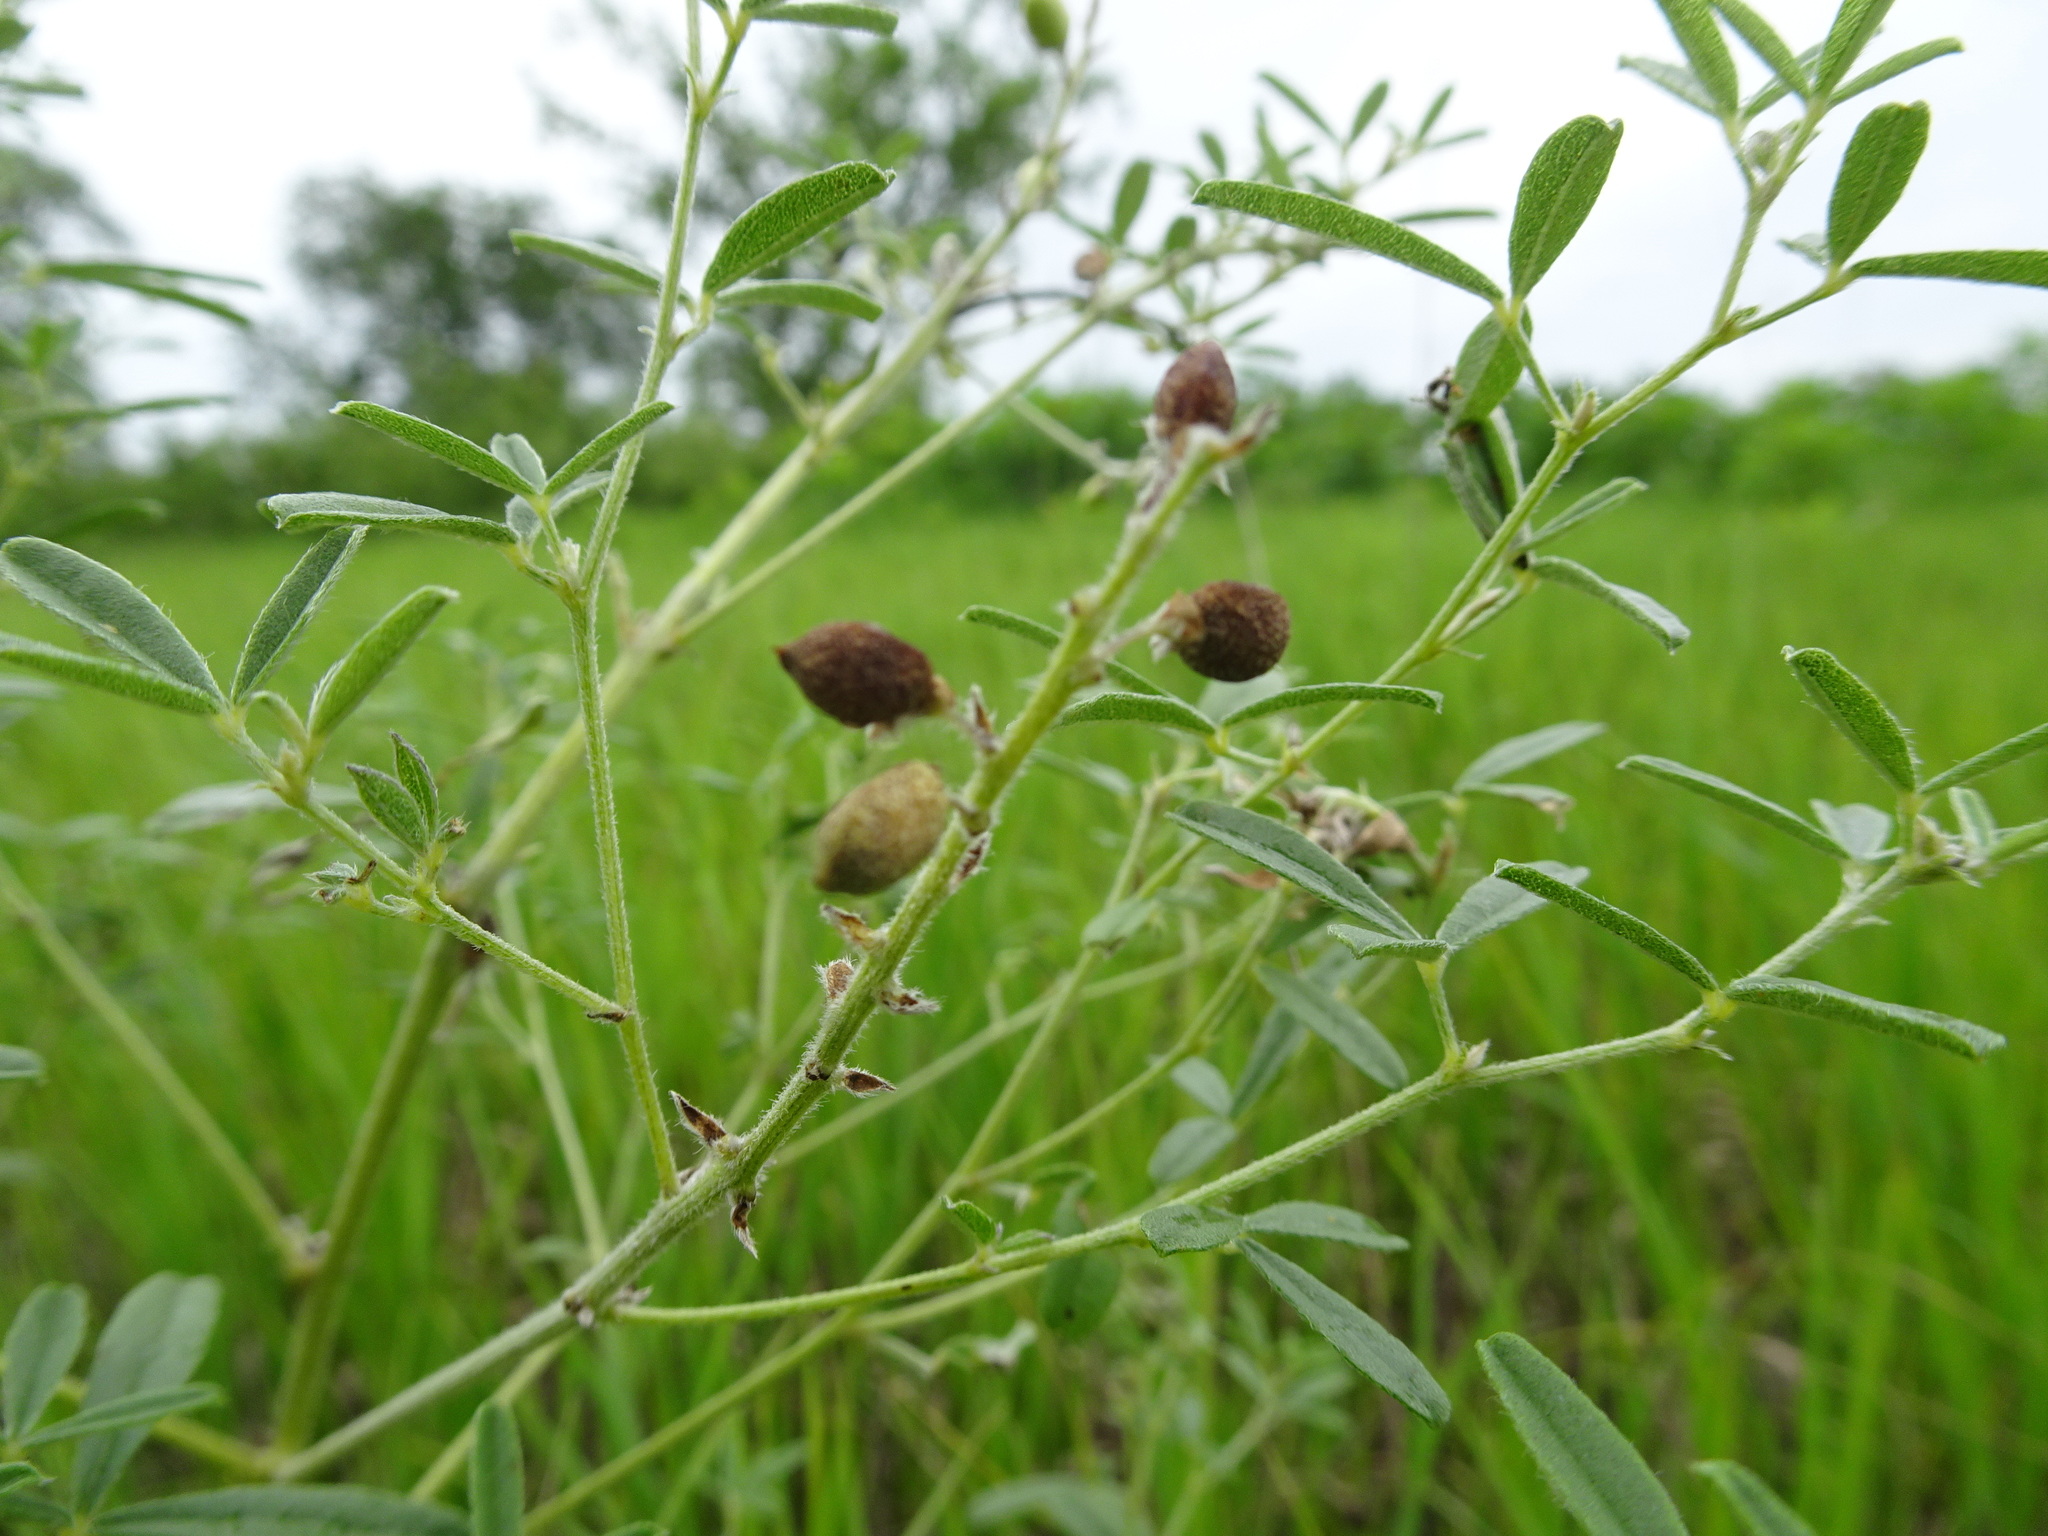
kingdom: Plantae
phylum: Tracheophyta
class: Magnoliopsida
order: Fabales
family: Fabaceae
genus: Pediomelum
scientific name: Pediomelum tenuiflorum
